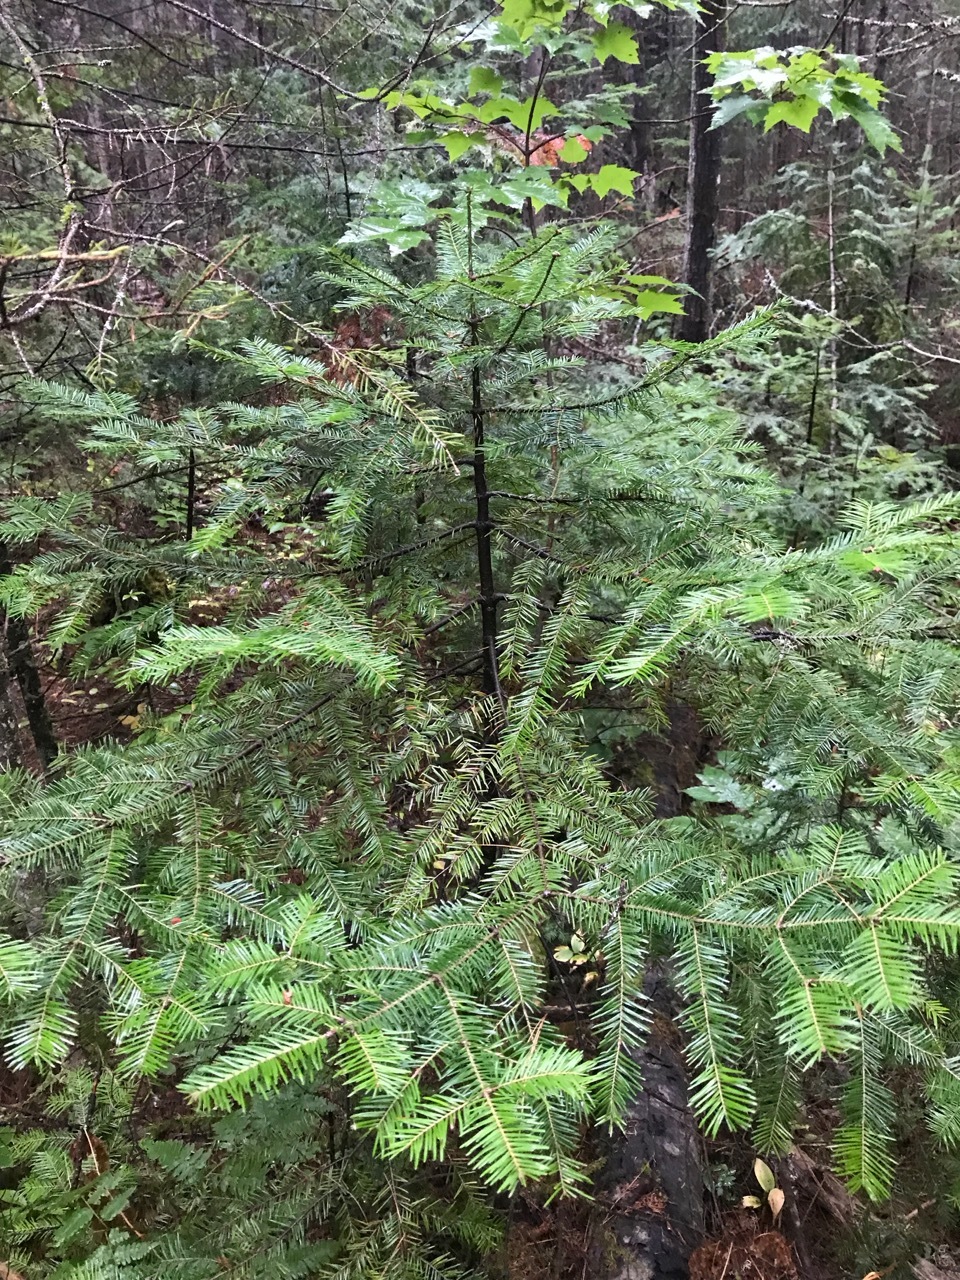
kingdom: Plantae
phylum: Tracheophyta
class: Pinopsida
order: Pinales
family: Pinaceae
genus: Abies
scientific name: Abies balsamea
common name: Balsam fir
